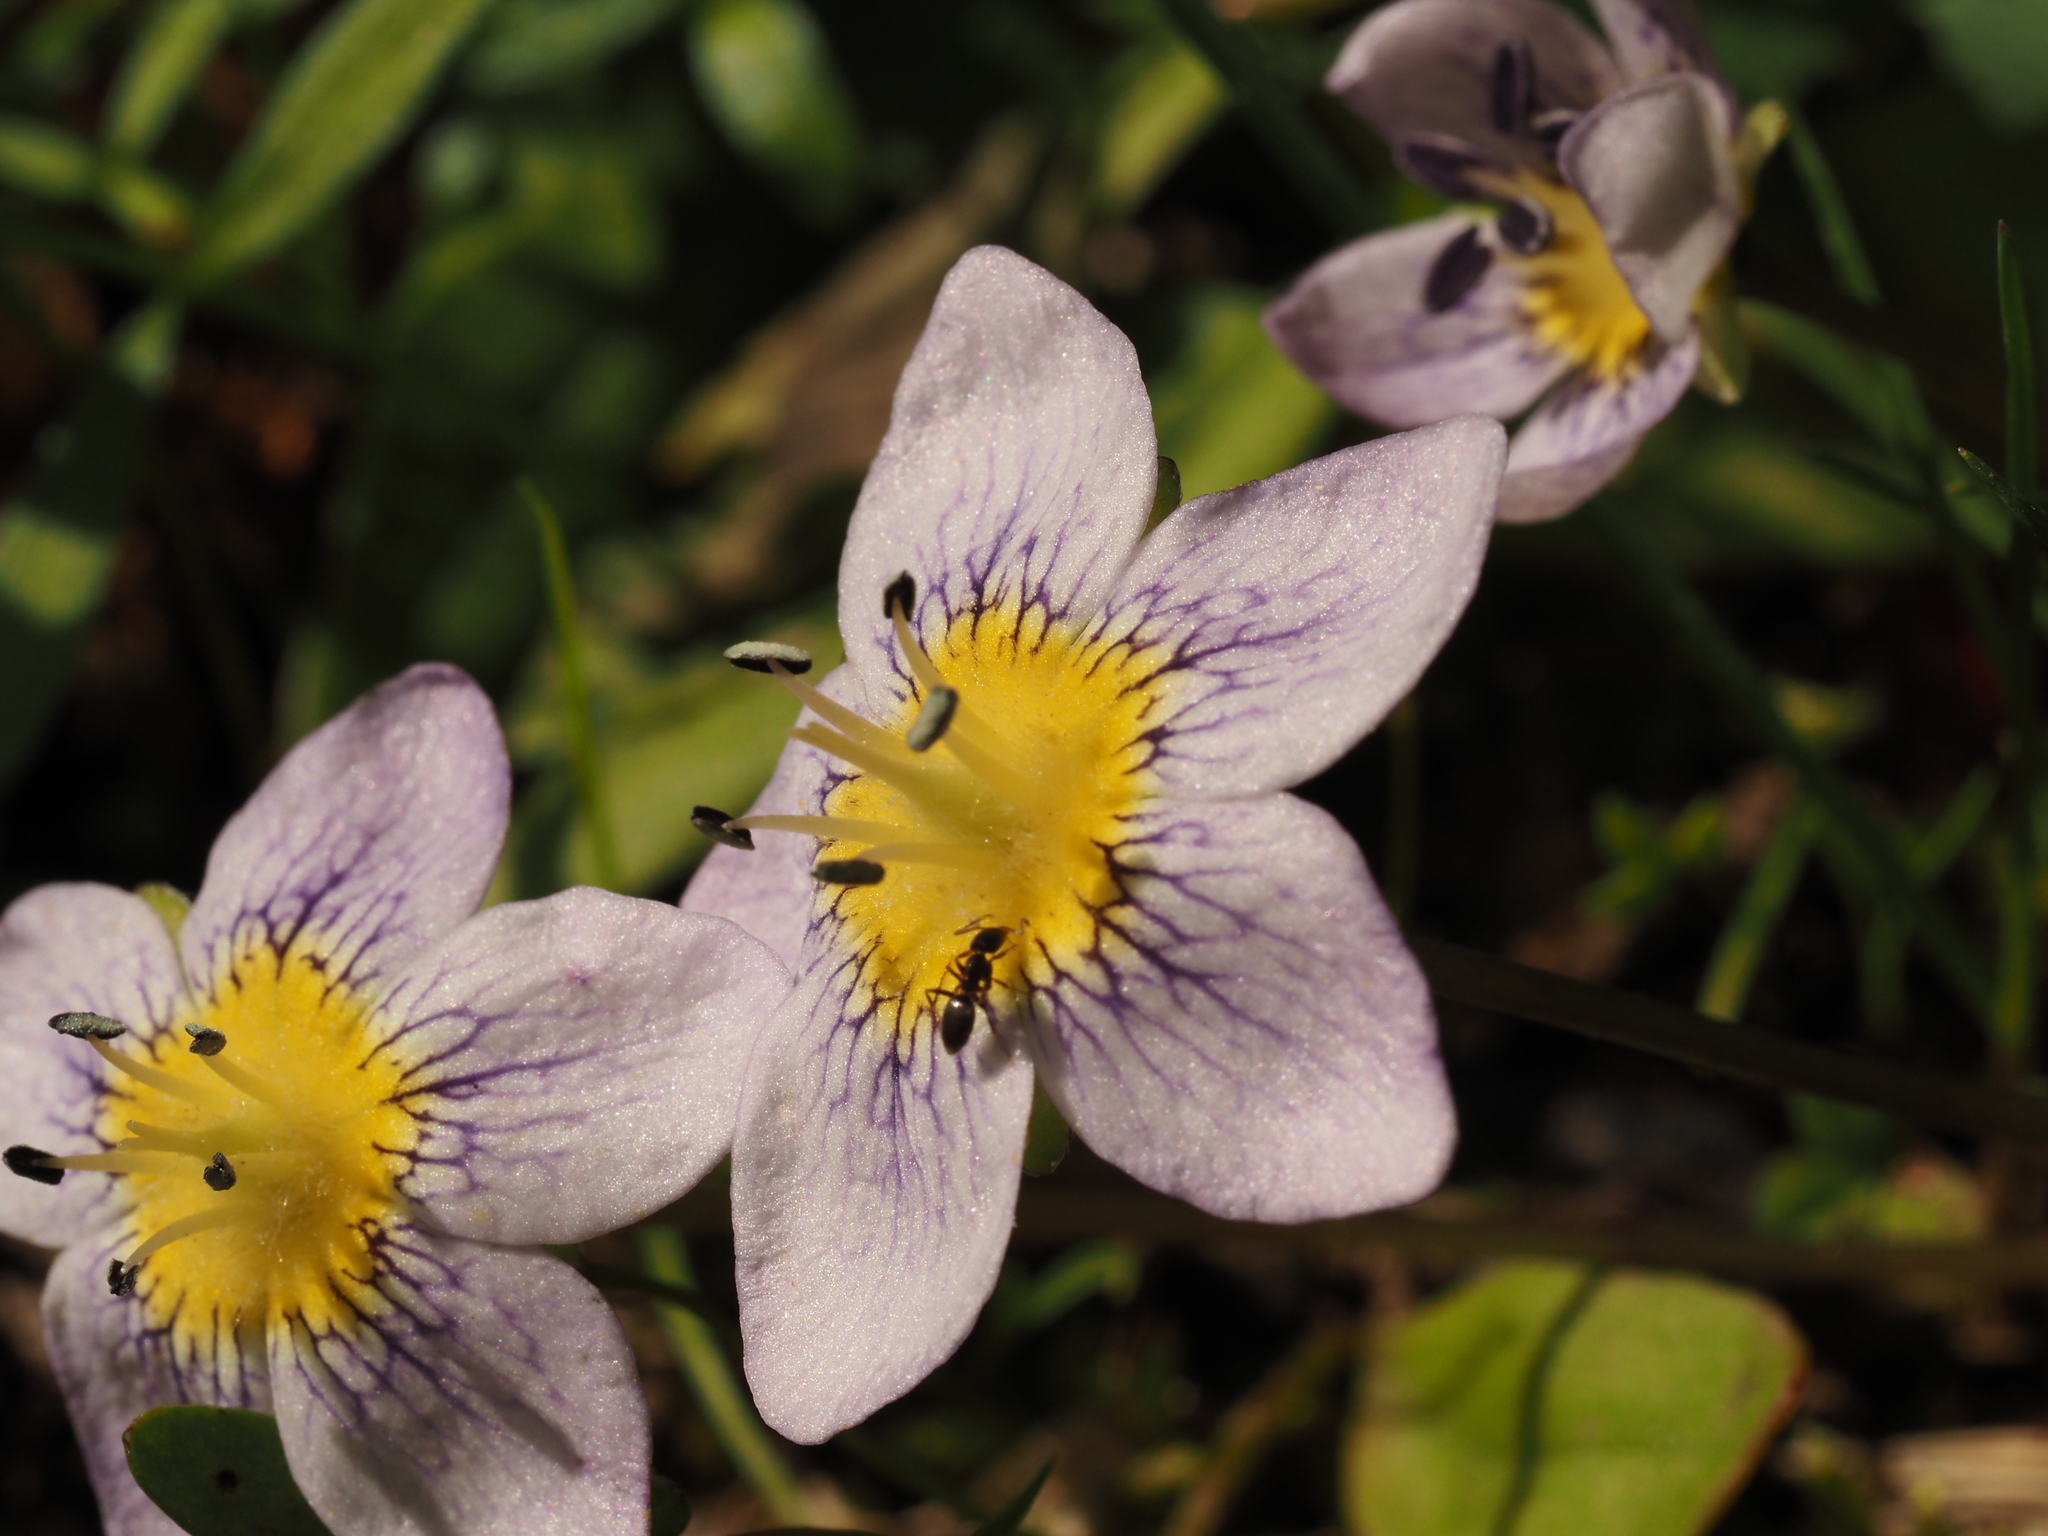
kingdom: Plantae
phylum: Tracheophyta
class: Magnoliopsida
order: Boraginales
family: Hydrophyllaceae
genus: Hesperochiron
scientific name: Hesperochiron pumilus
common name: Dwarf hesperochiron
